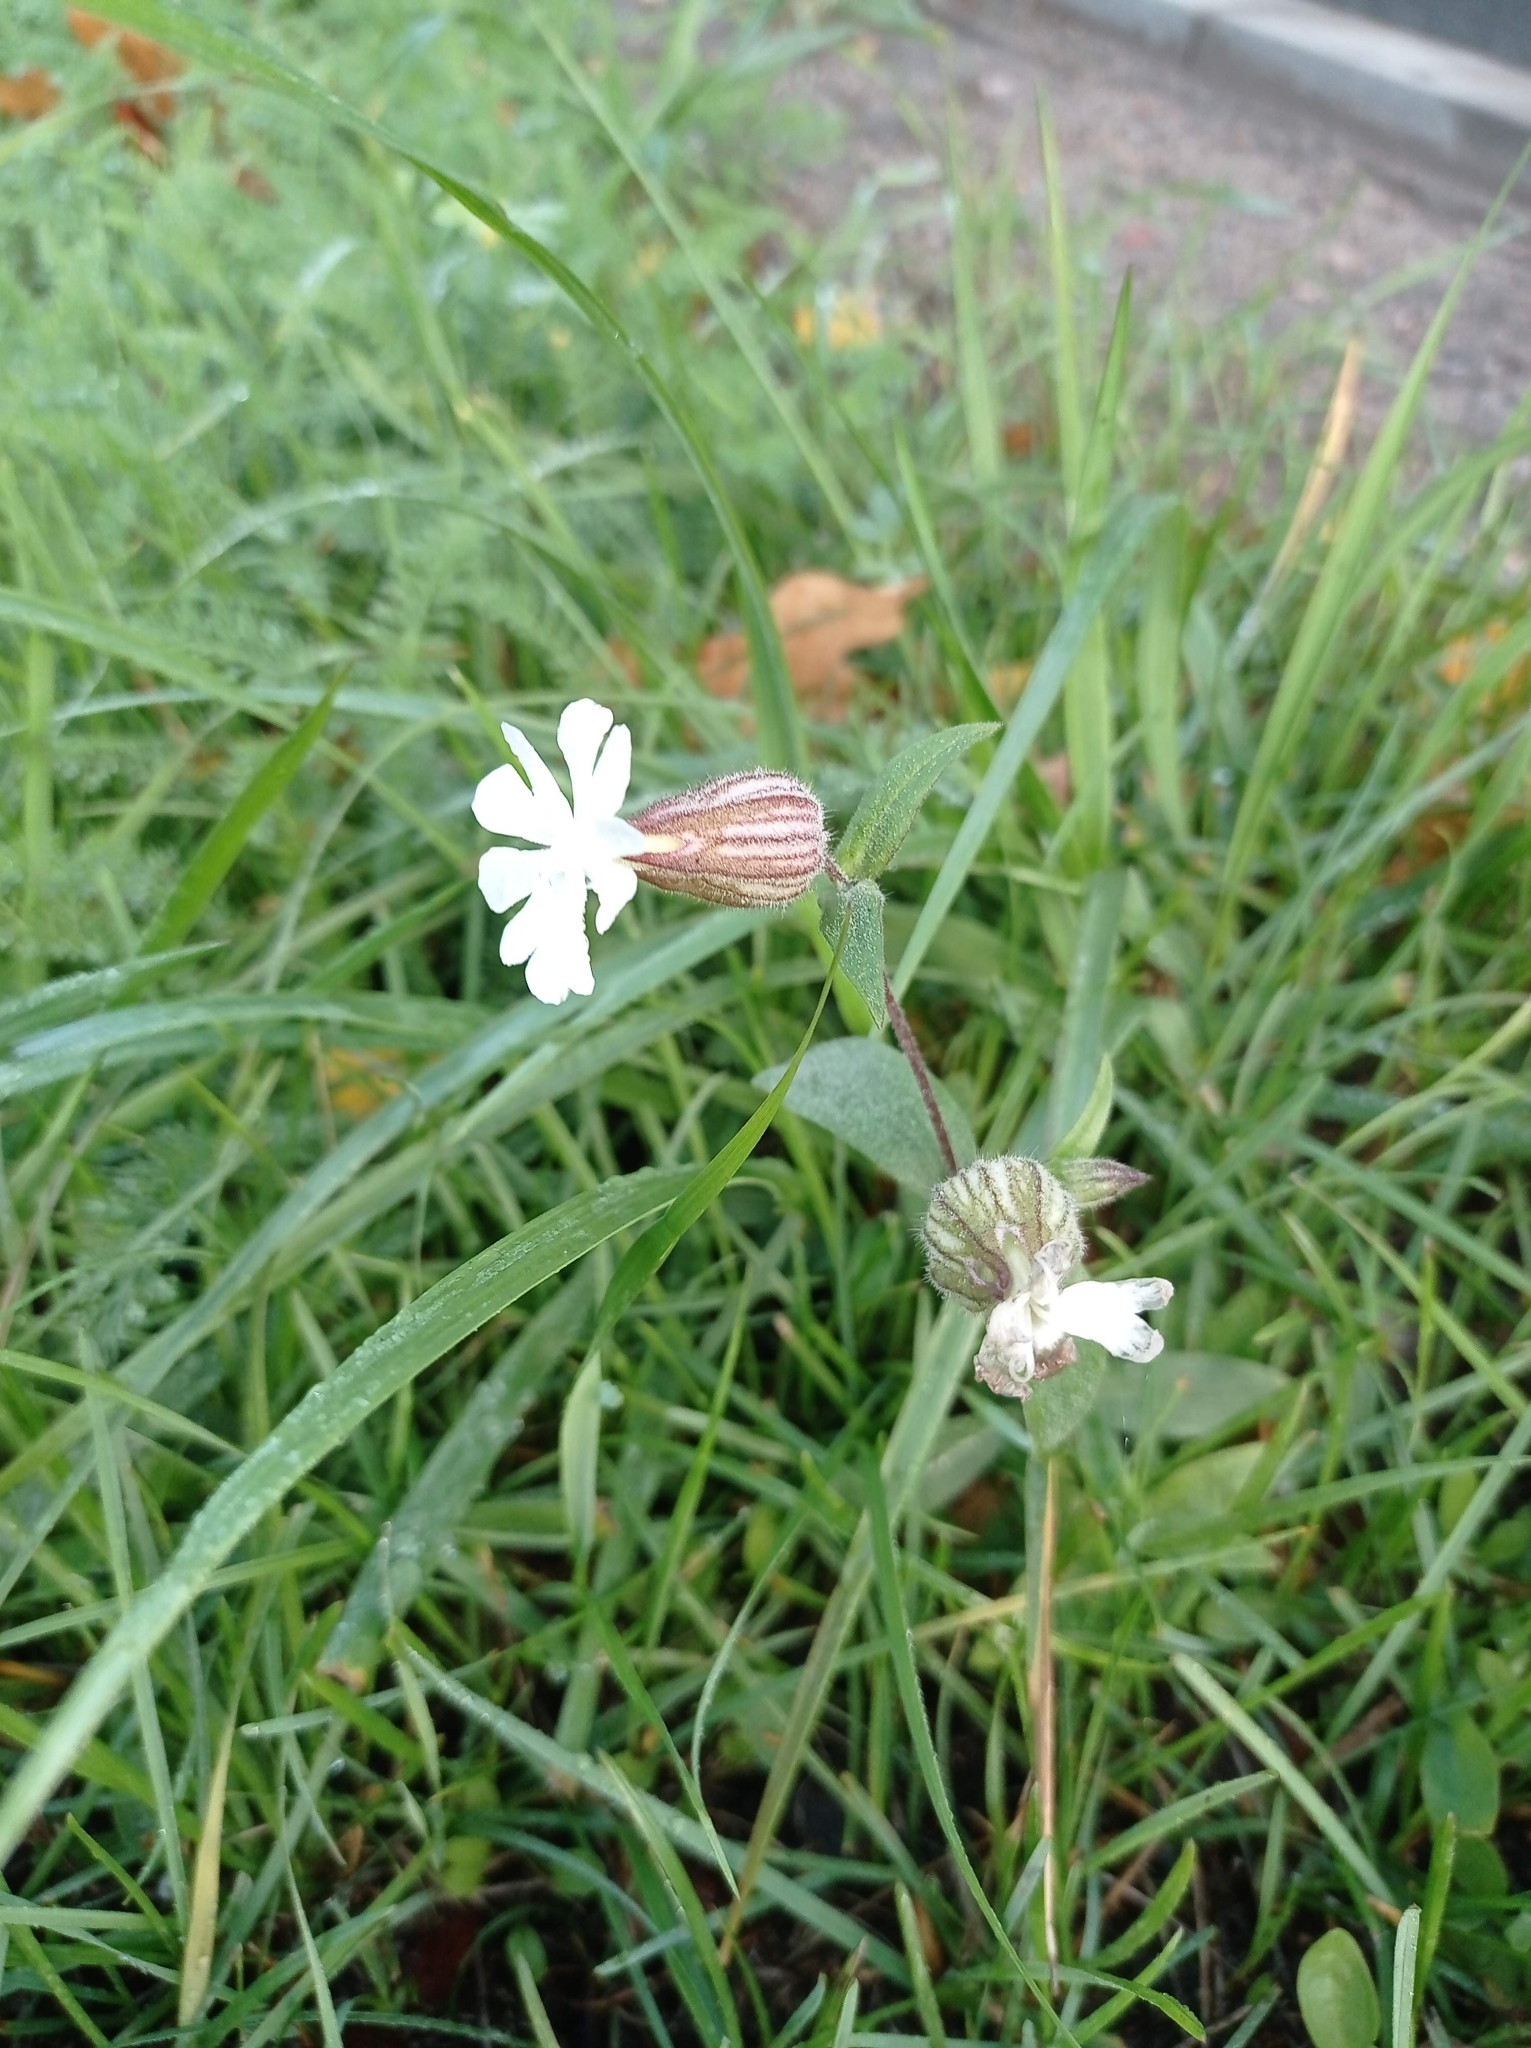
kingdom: Plantae
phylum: Tracheophyta
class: Magnoliopsida
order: Caryophyllales
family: Caryophyllaceae
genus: Silene
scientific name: Silene latifolia
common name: White campion
